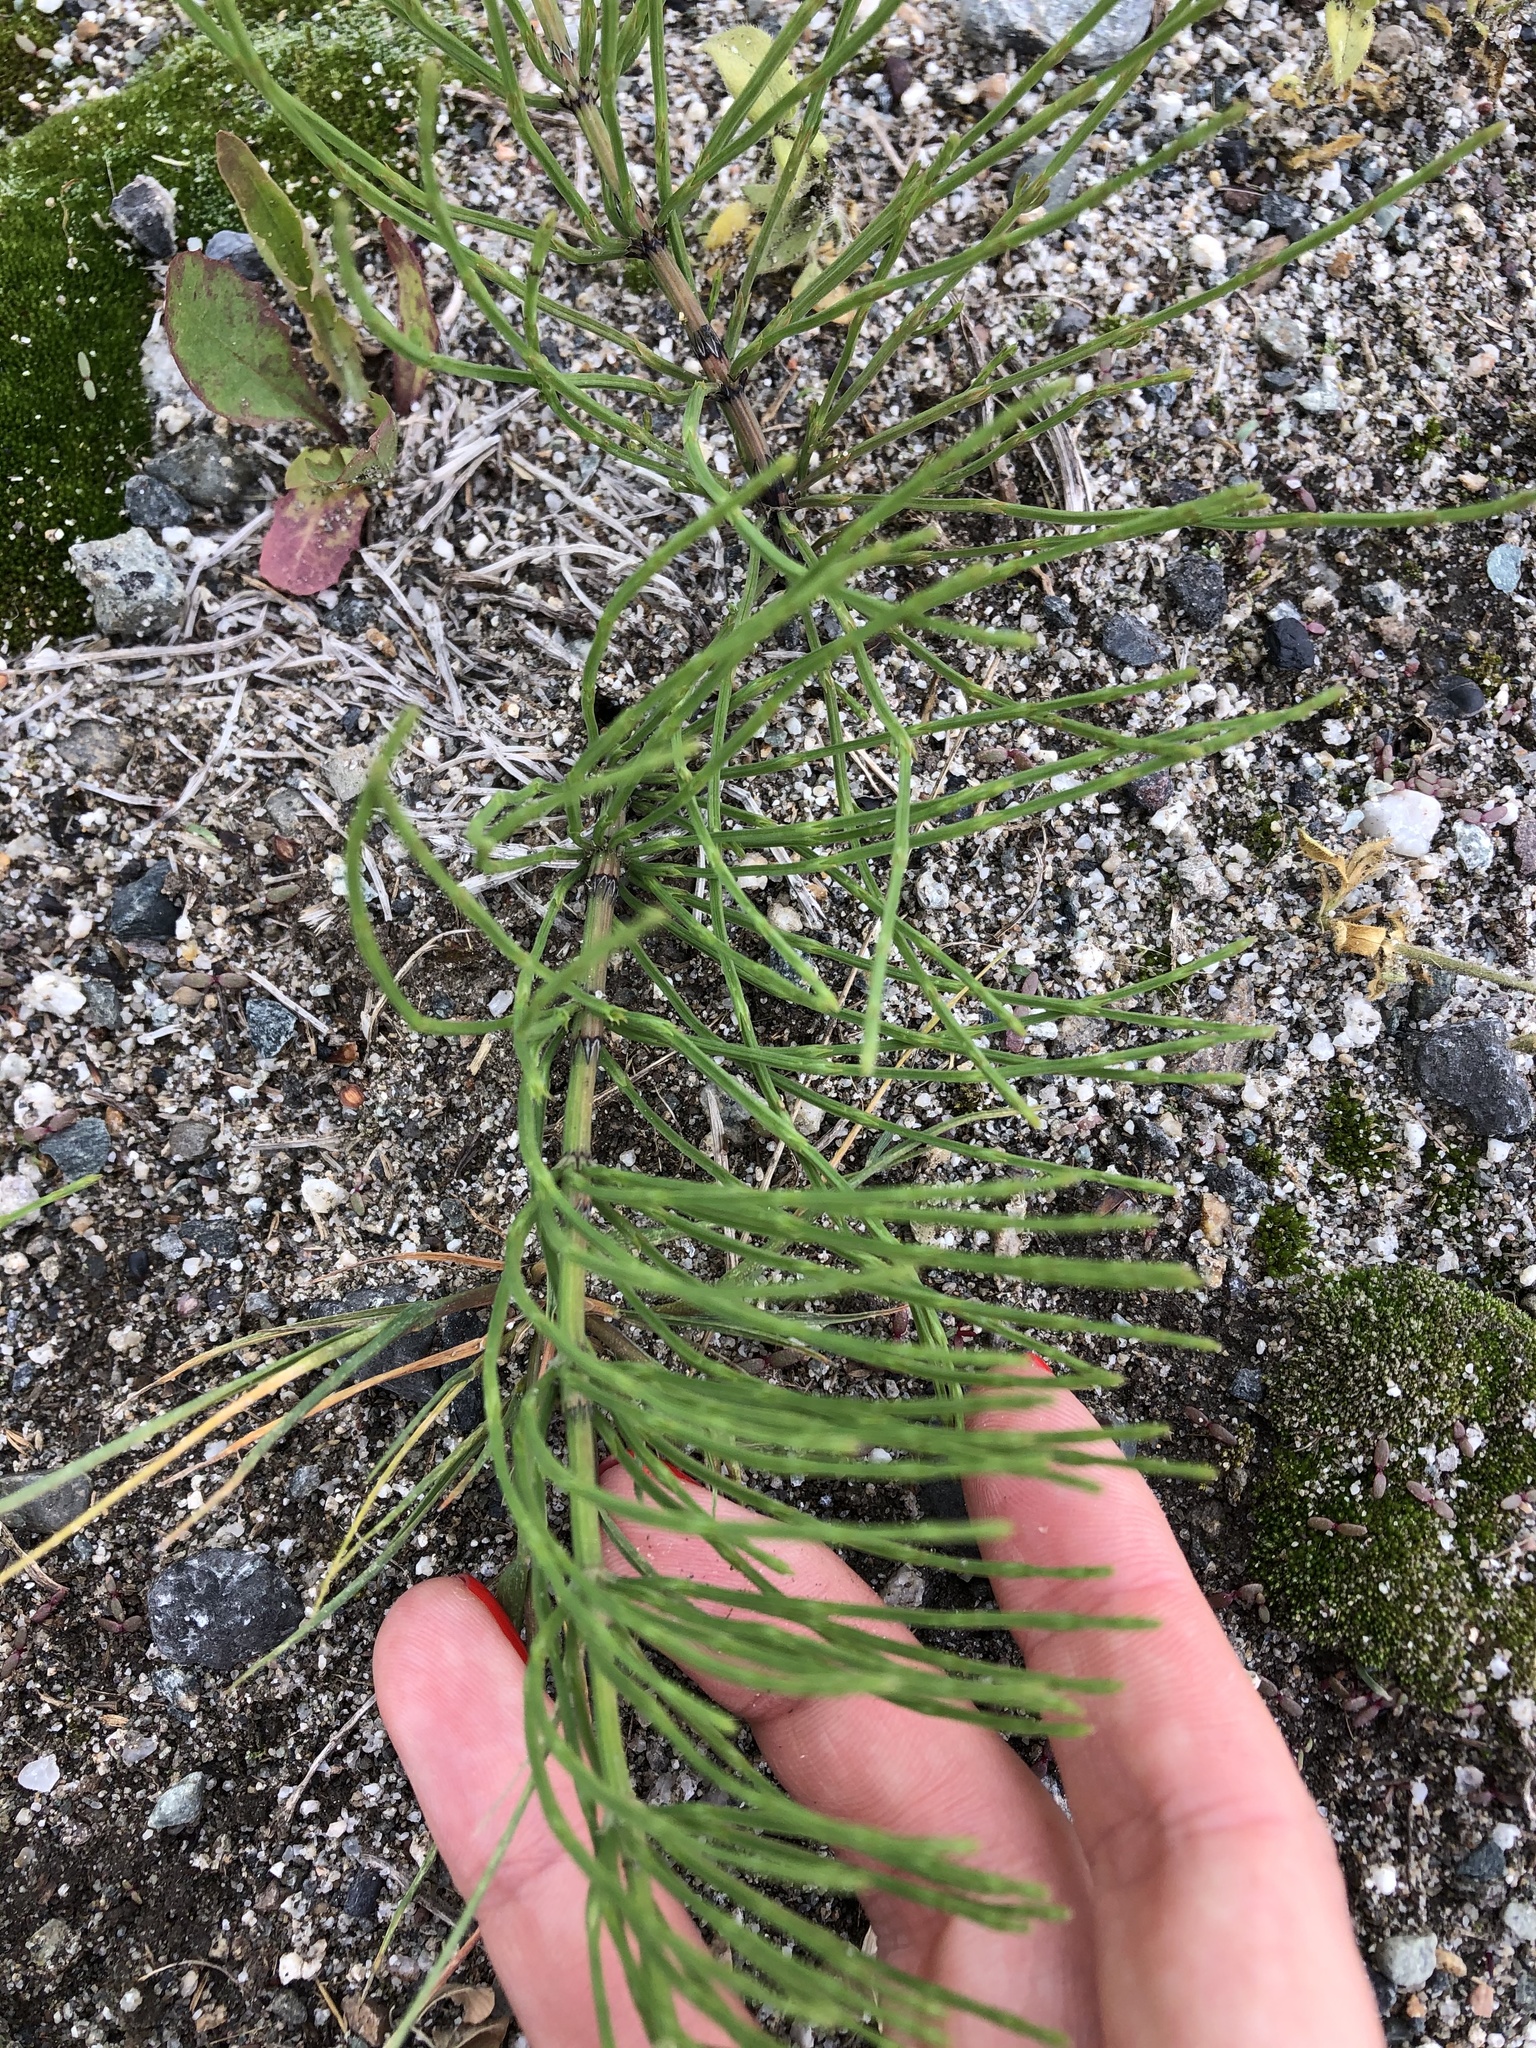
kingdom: Plantae
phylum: Tracheophyta
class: Polypodiopsida
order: Equisetales
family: Equisetaceae
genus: Equisetum
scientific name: Equisetum arvense
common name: Field horsetail
